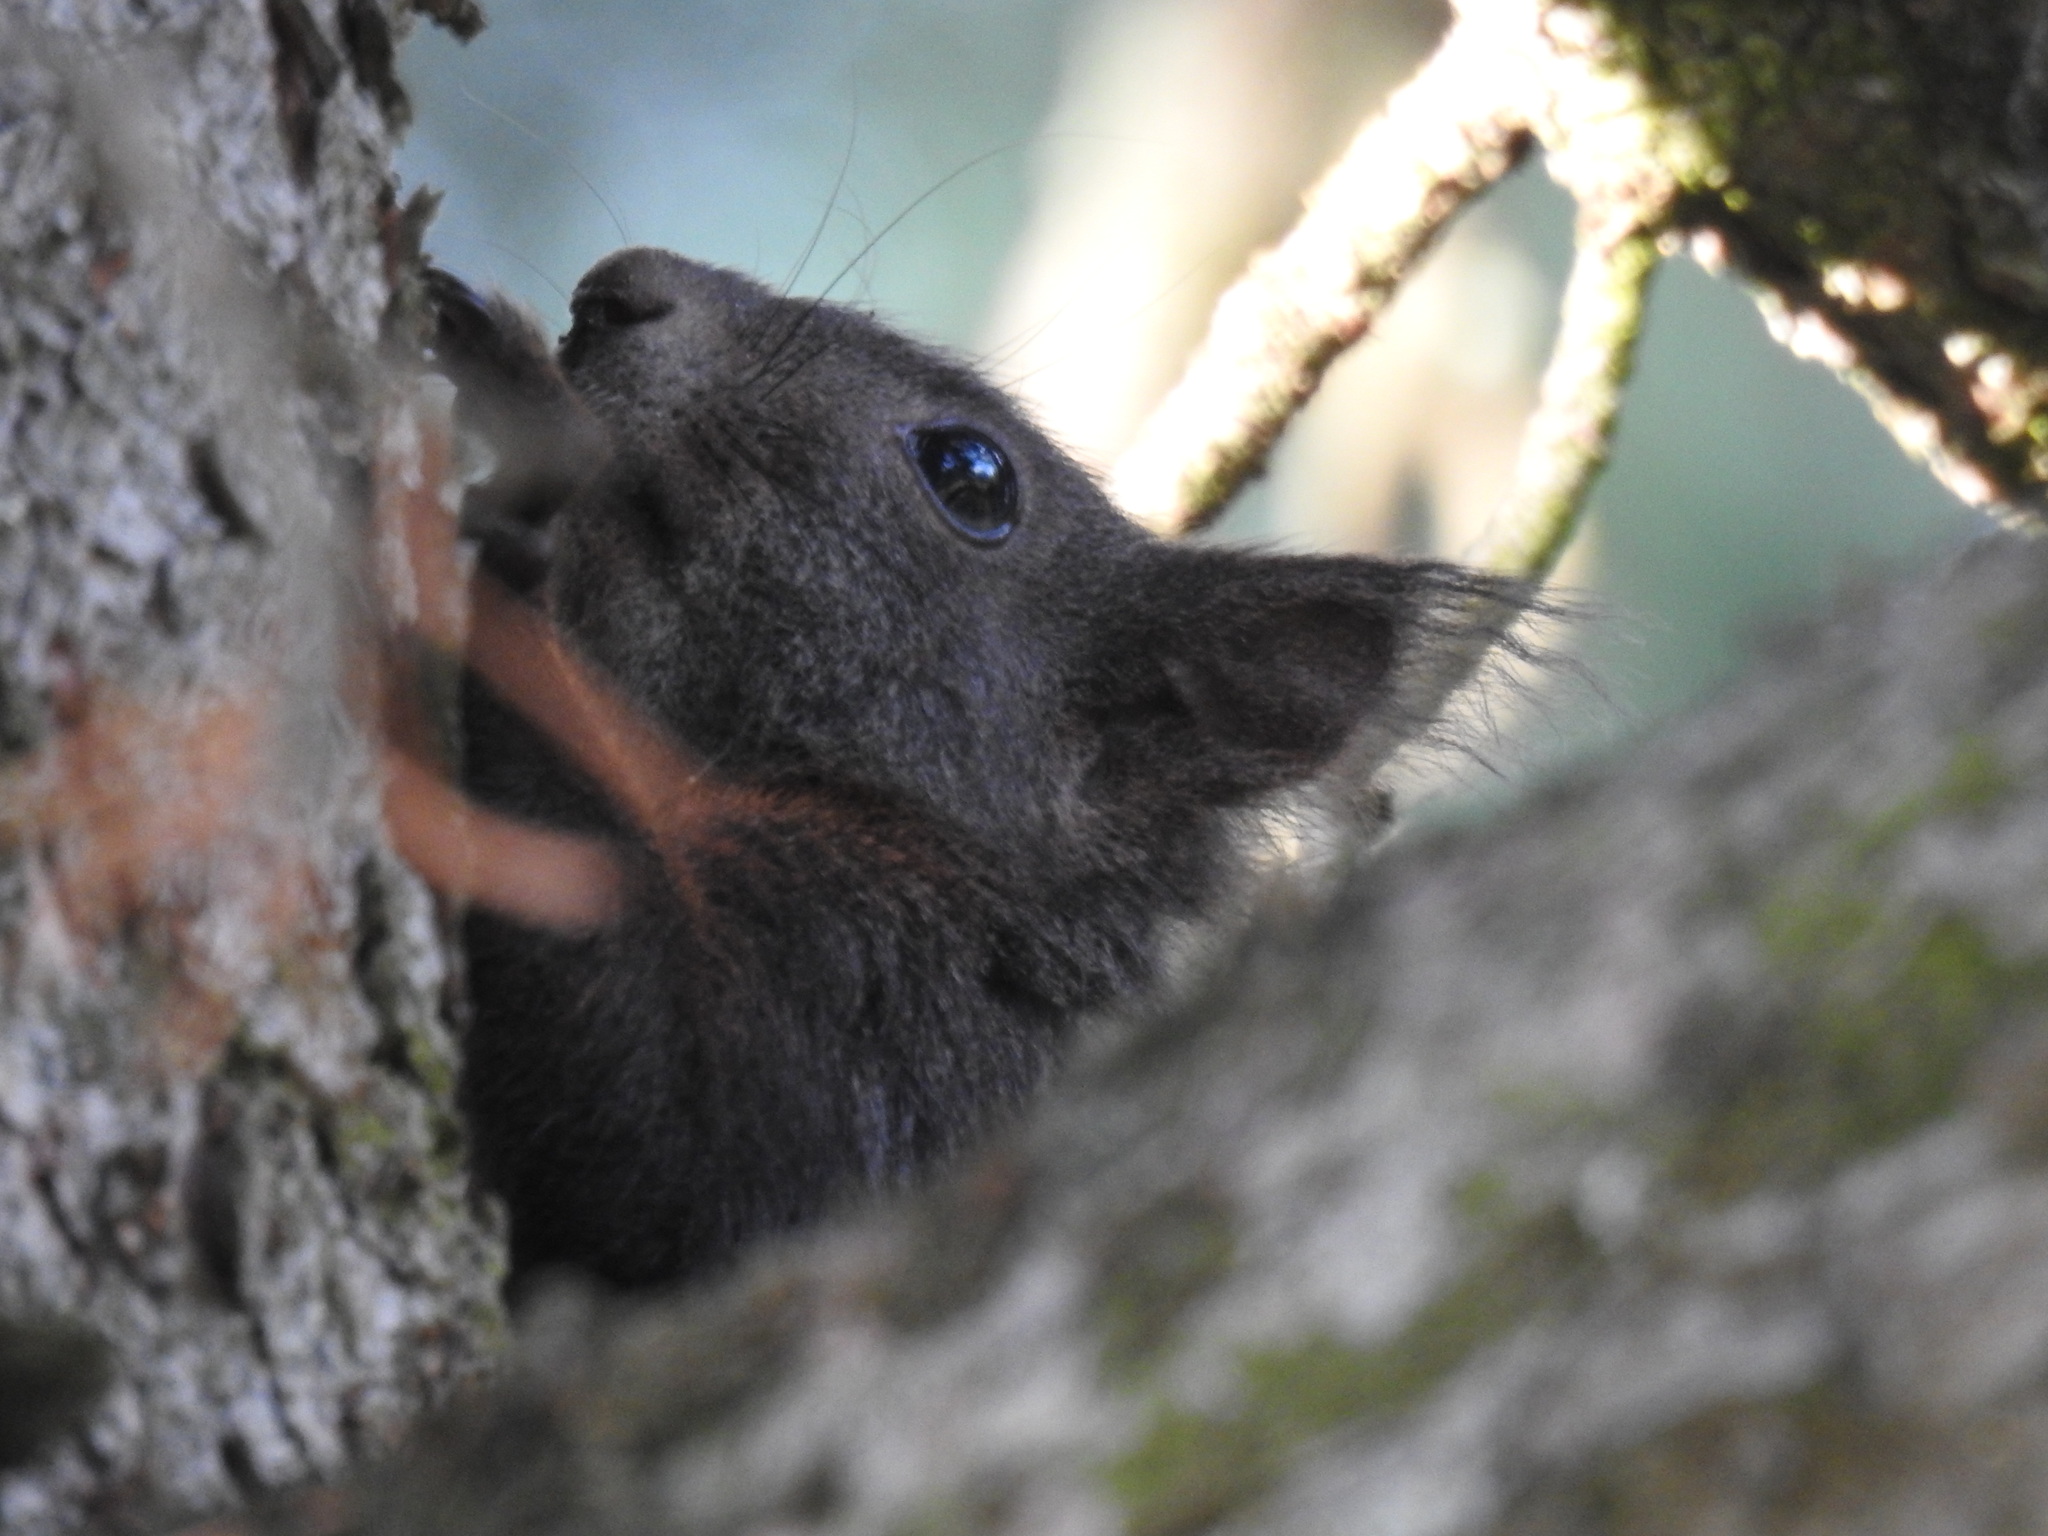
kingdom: Animalia
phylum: Chordata
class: Mammalia
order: Rodentia
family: Sciuridae
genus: Sciurus
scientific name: Sciurus vulgaris
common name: Eurasian red squirrel
